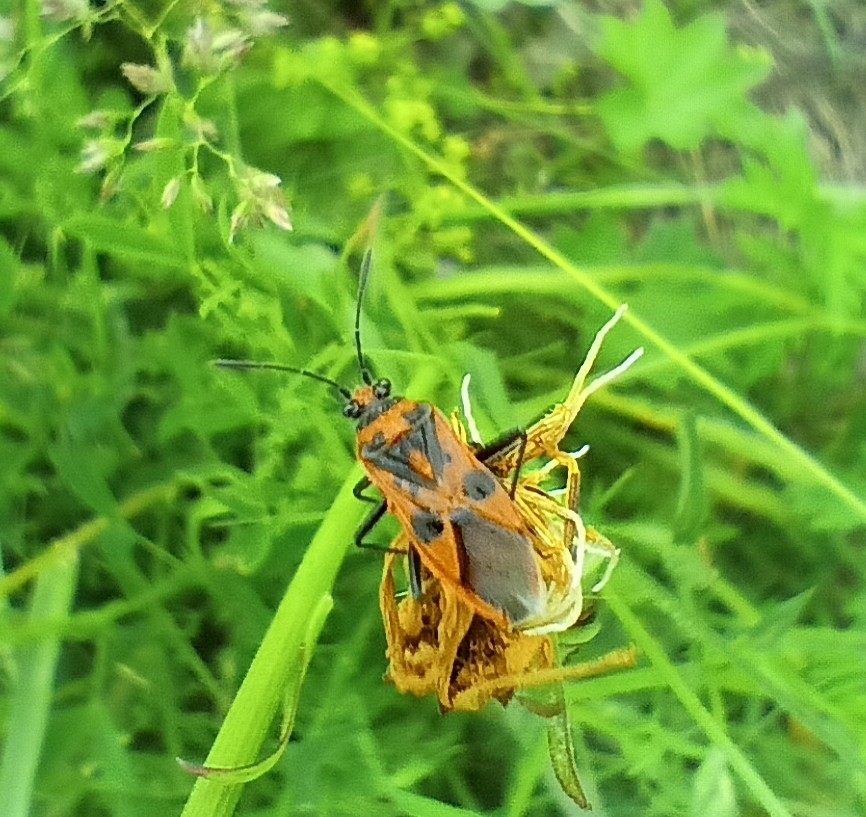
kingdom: Animalia
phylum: Arthropoda
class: Insecta
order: Hemiptera
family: Rhopalidae
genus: Corizus
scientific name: Corizus hyoscyami
